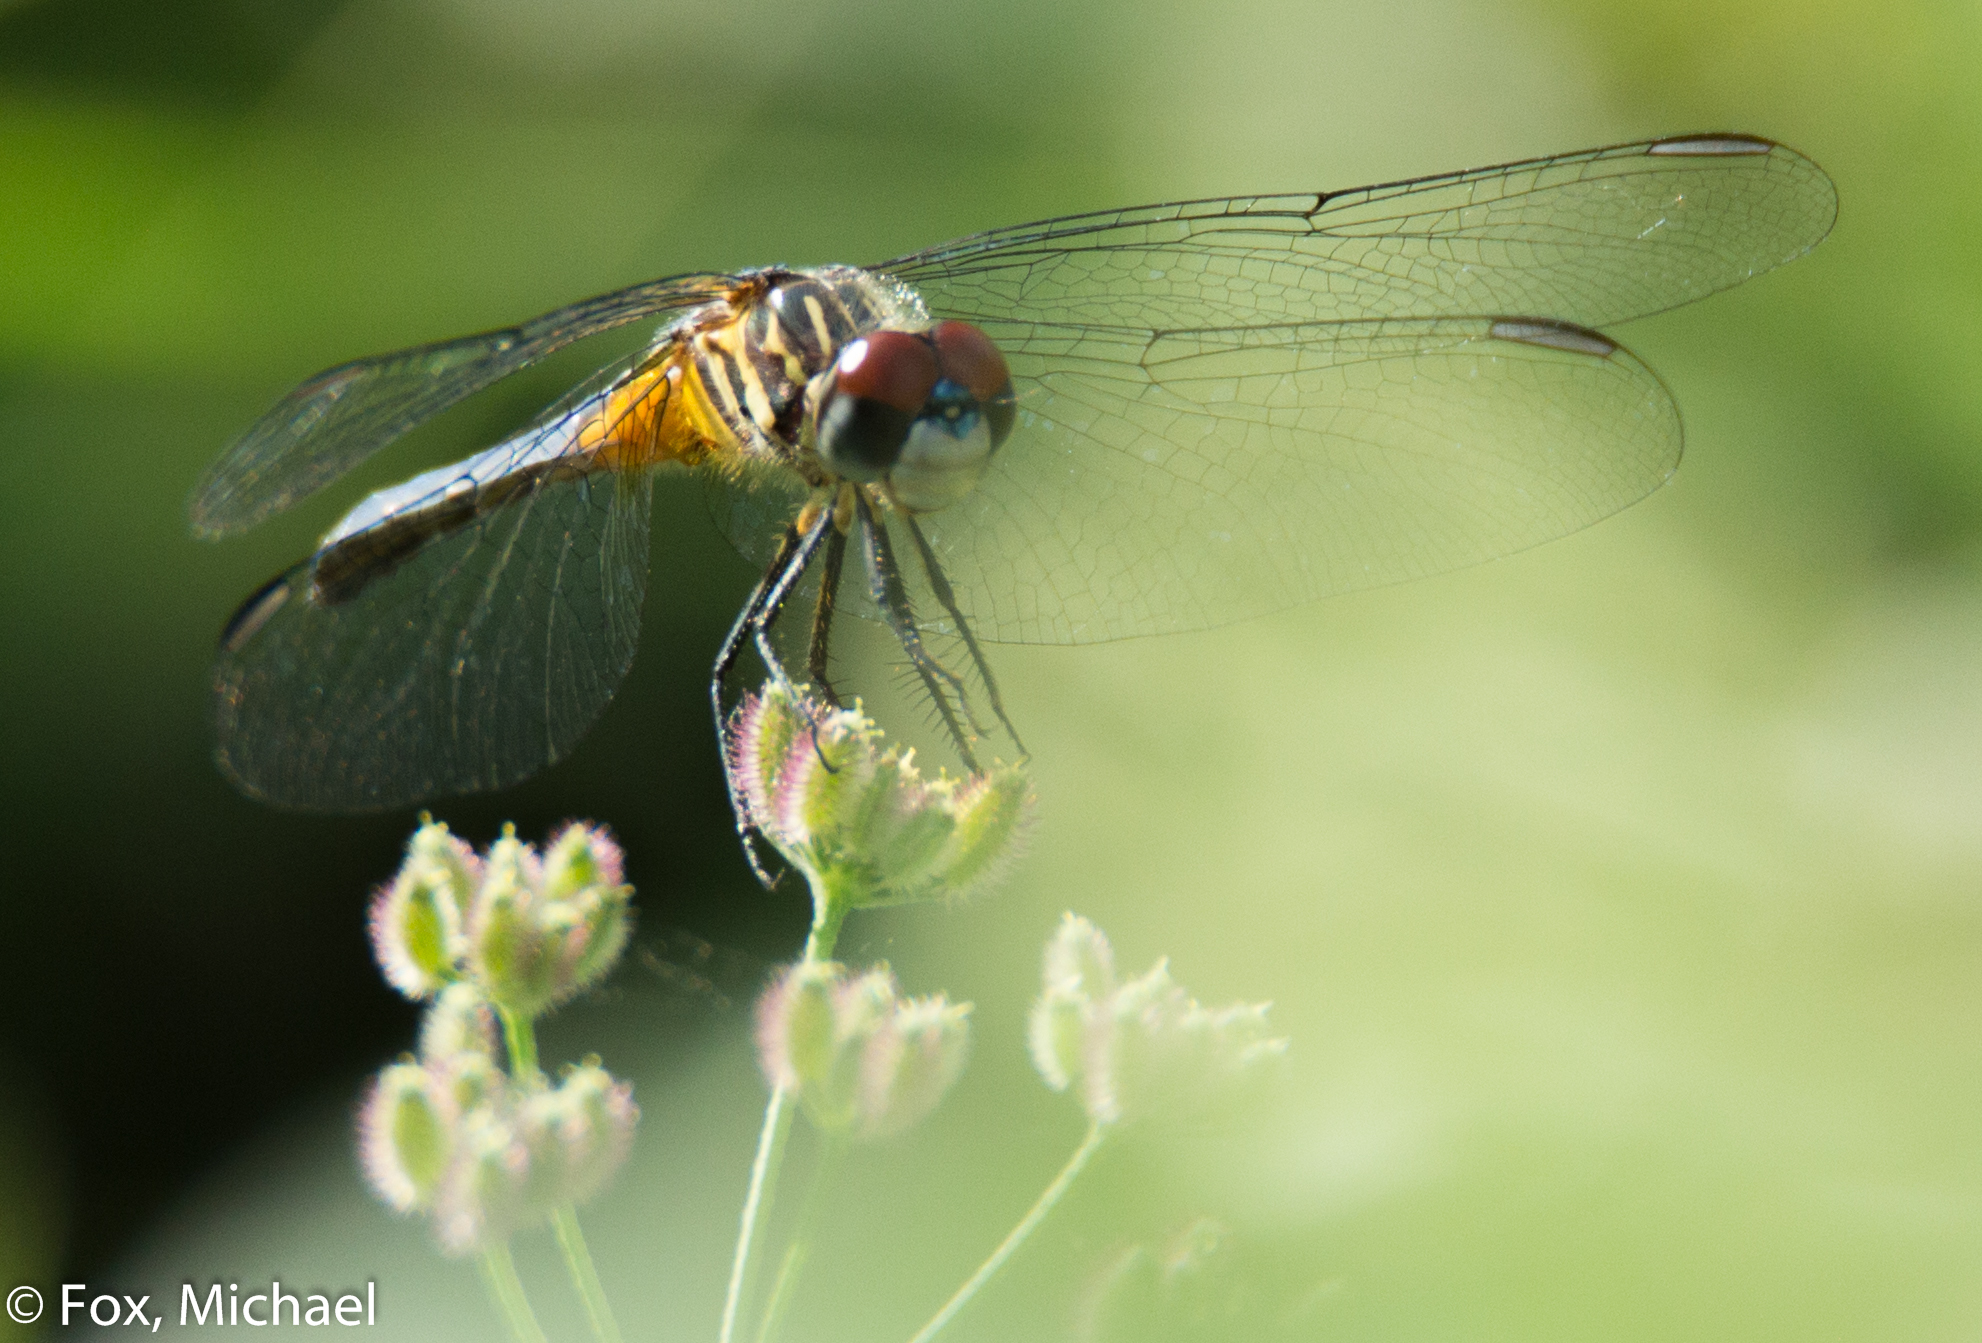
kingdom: Animalia
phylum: Arthropoda
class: Insecta
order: Odonata
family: Libellulidae
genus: Pachydiplax
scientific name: Pachydiplax longipennis
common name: Blue dasher
